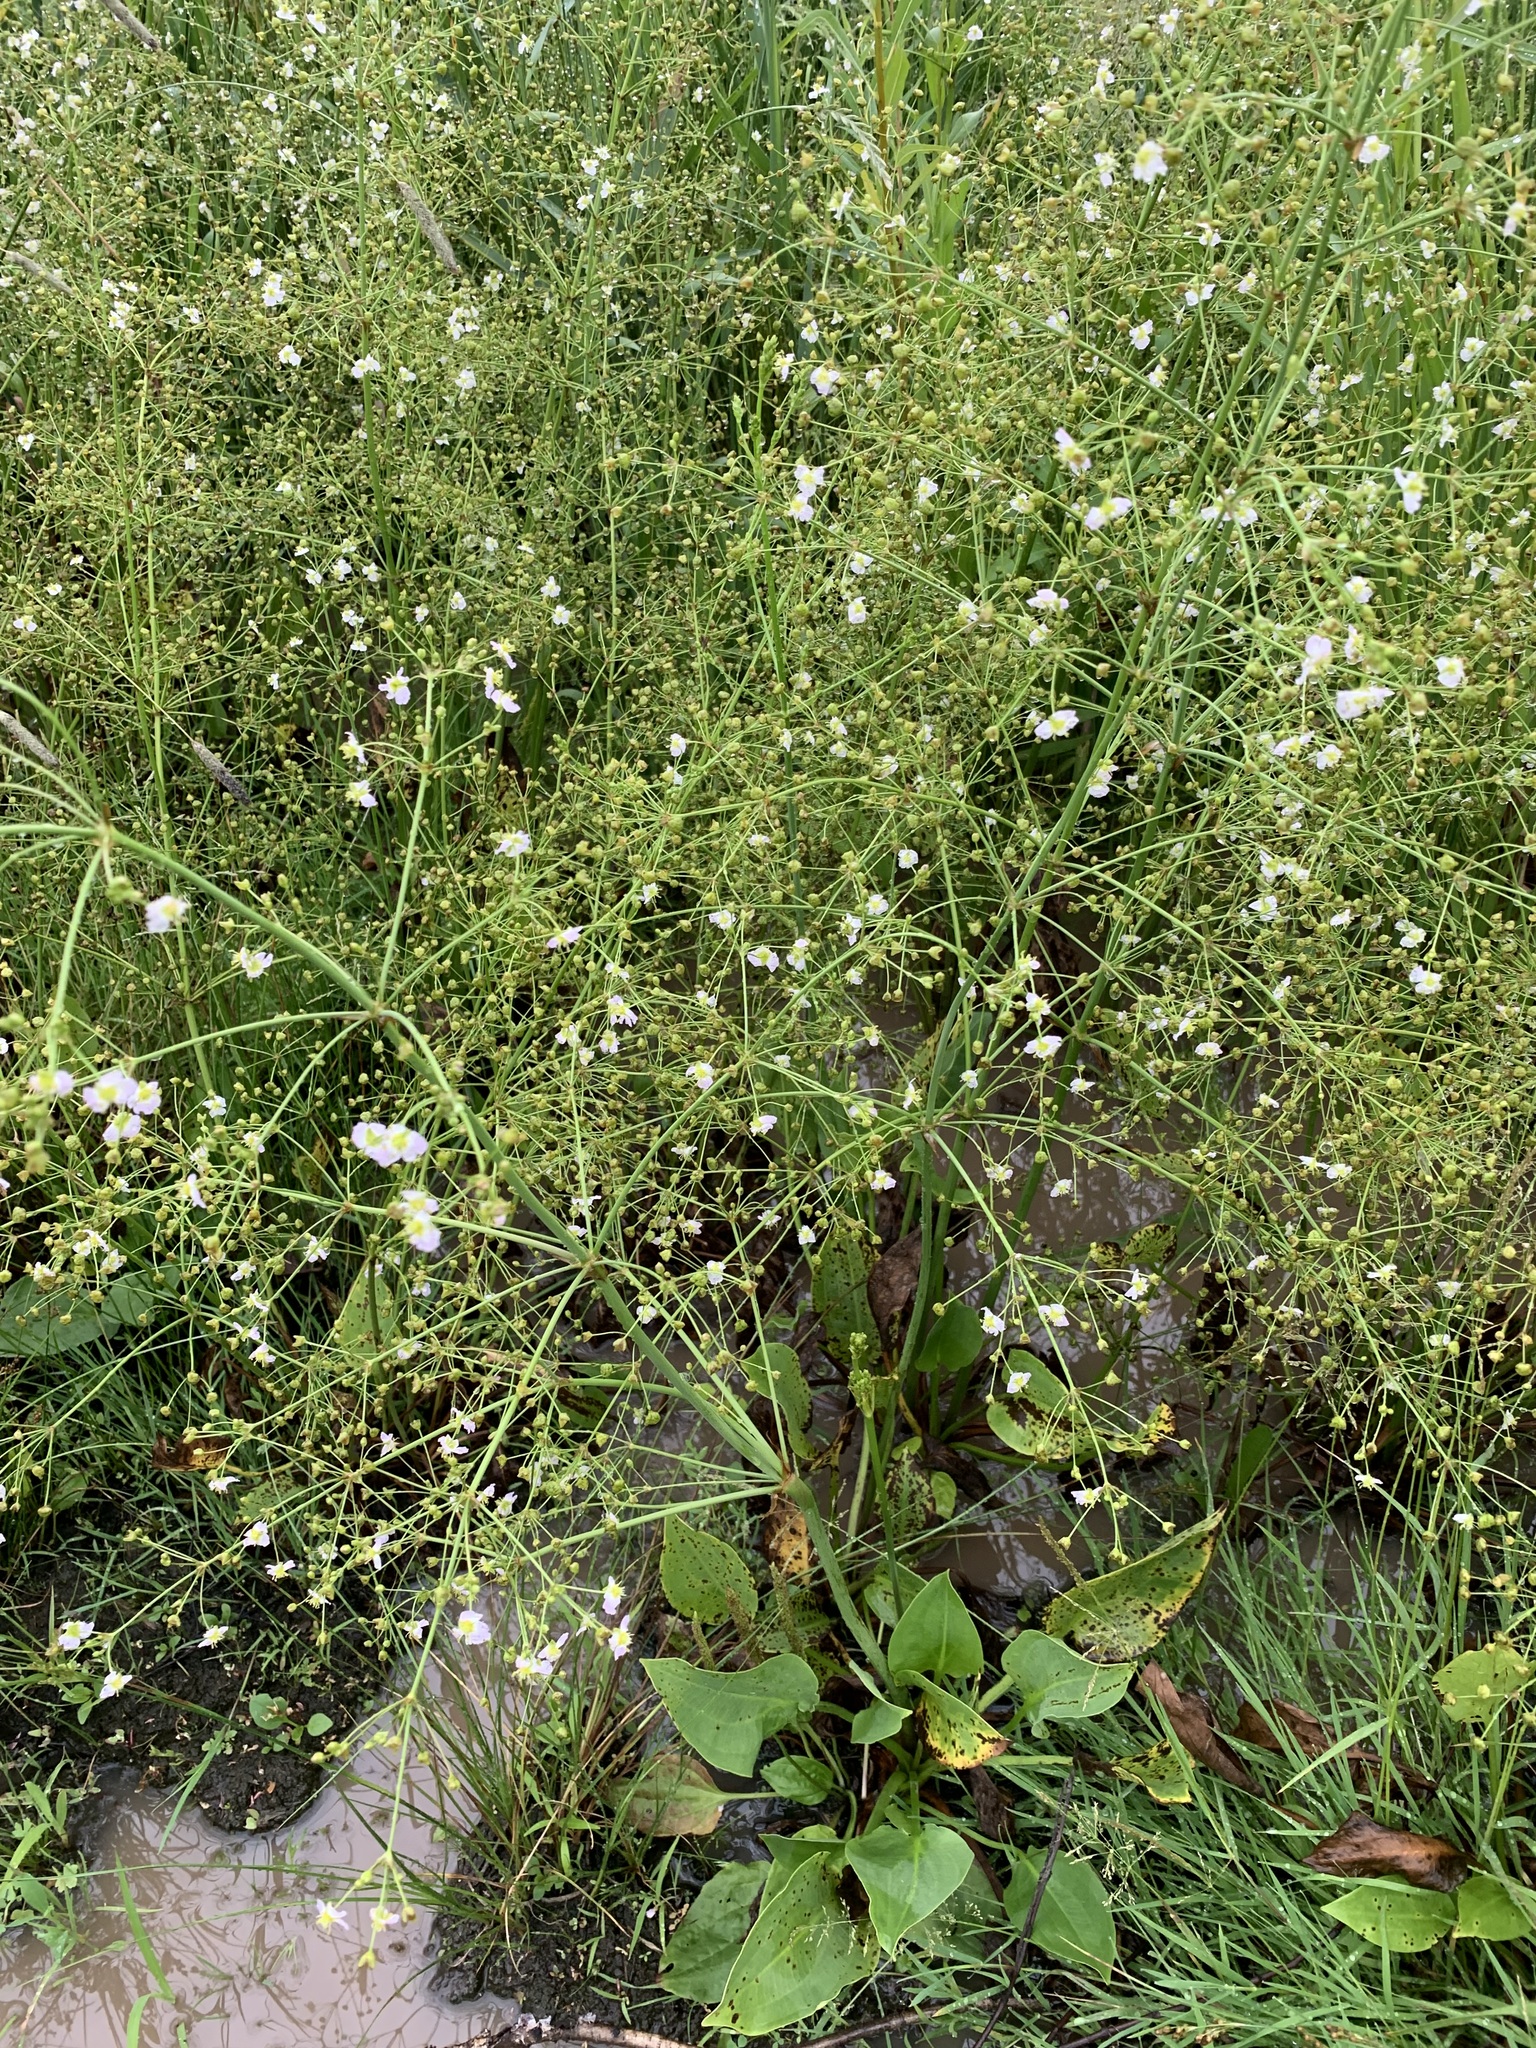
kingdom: Plantae
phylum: Tracheophyta
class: Liliopsida
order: Alismatales
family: Alismataceae
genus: Alisma
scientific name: Alisma plantago-aquatica
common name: Water-plantain
